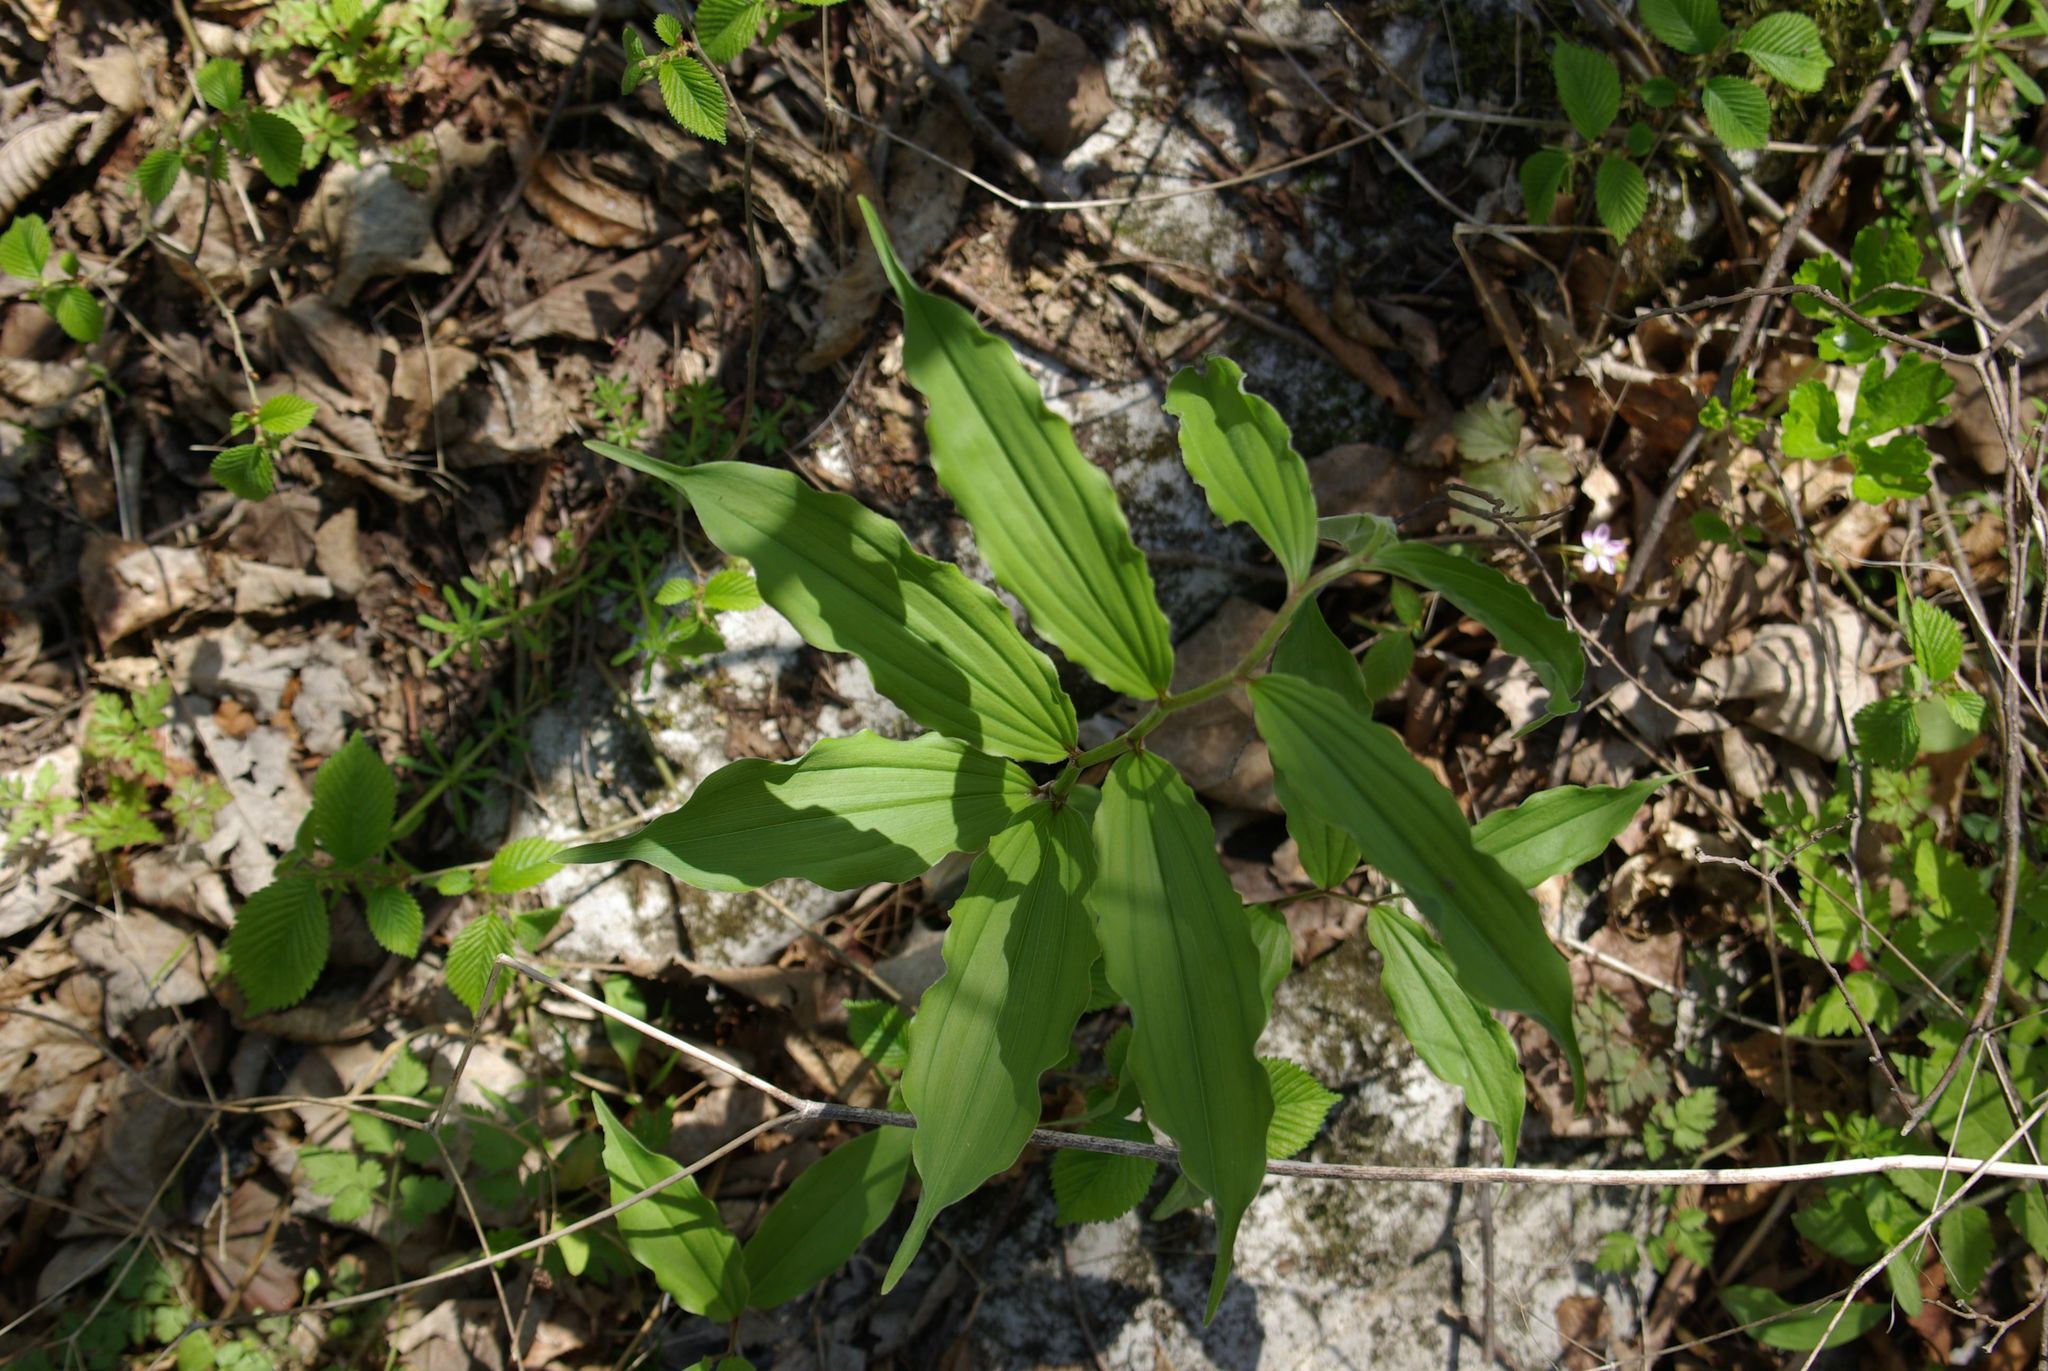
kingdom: Plantae
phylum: Tracheophyta
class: Liliopsida
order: Asparagales
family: Asparagaceae
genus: Maianthemum
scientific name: Maianthemum racemosum
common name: False spikenard
